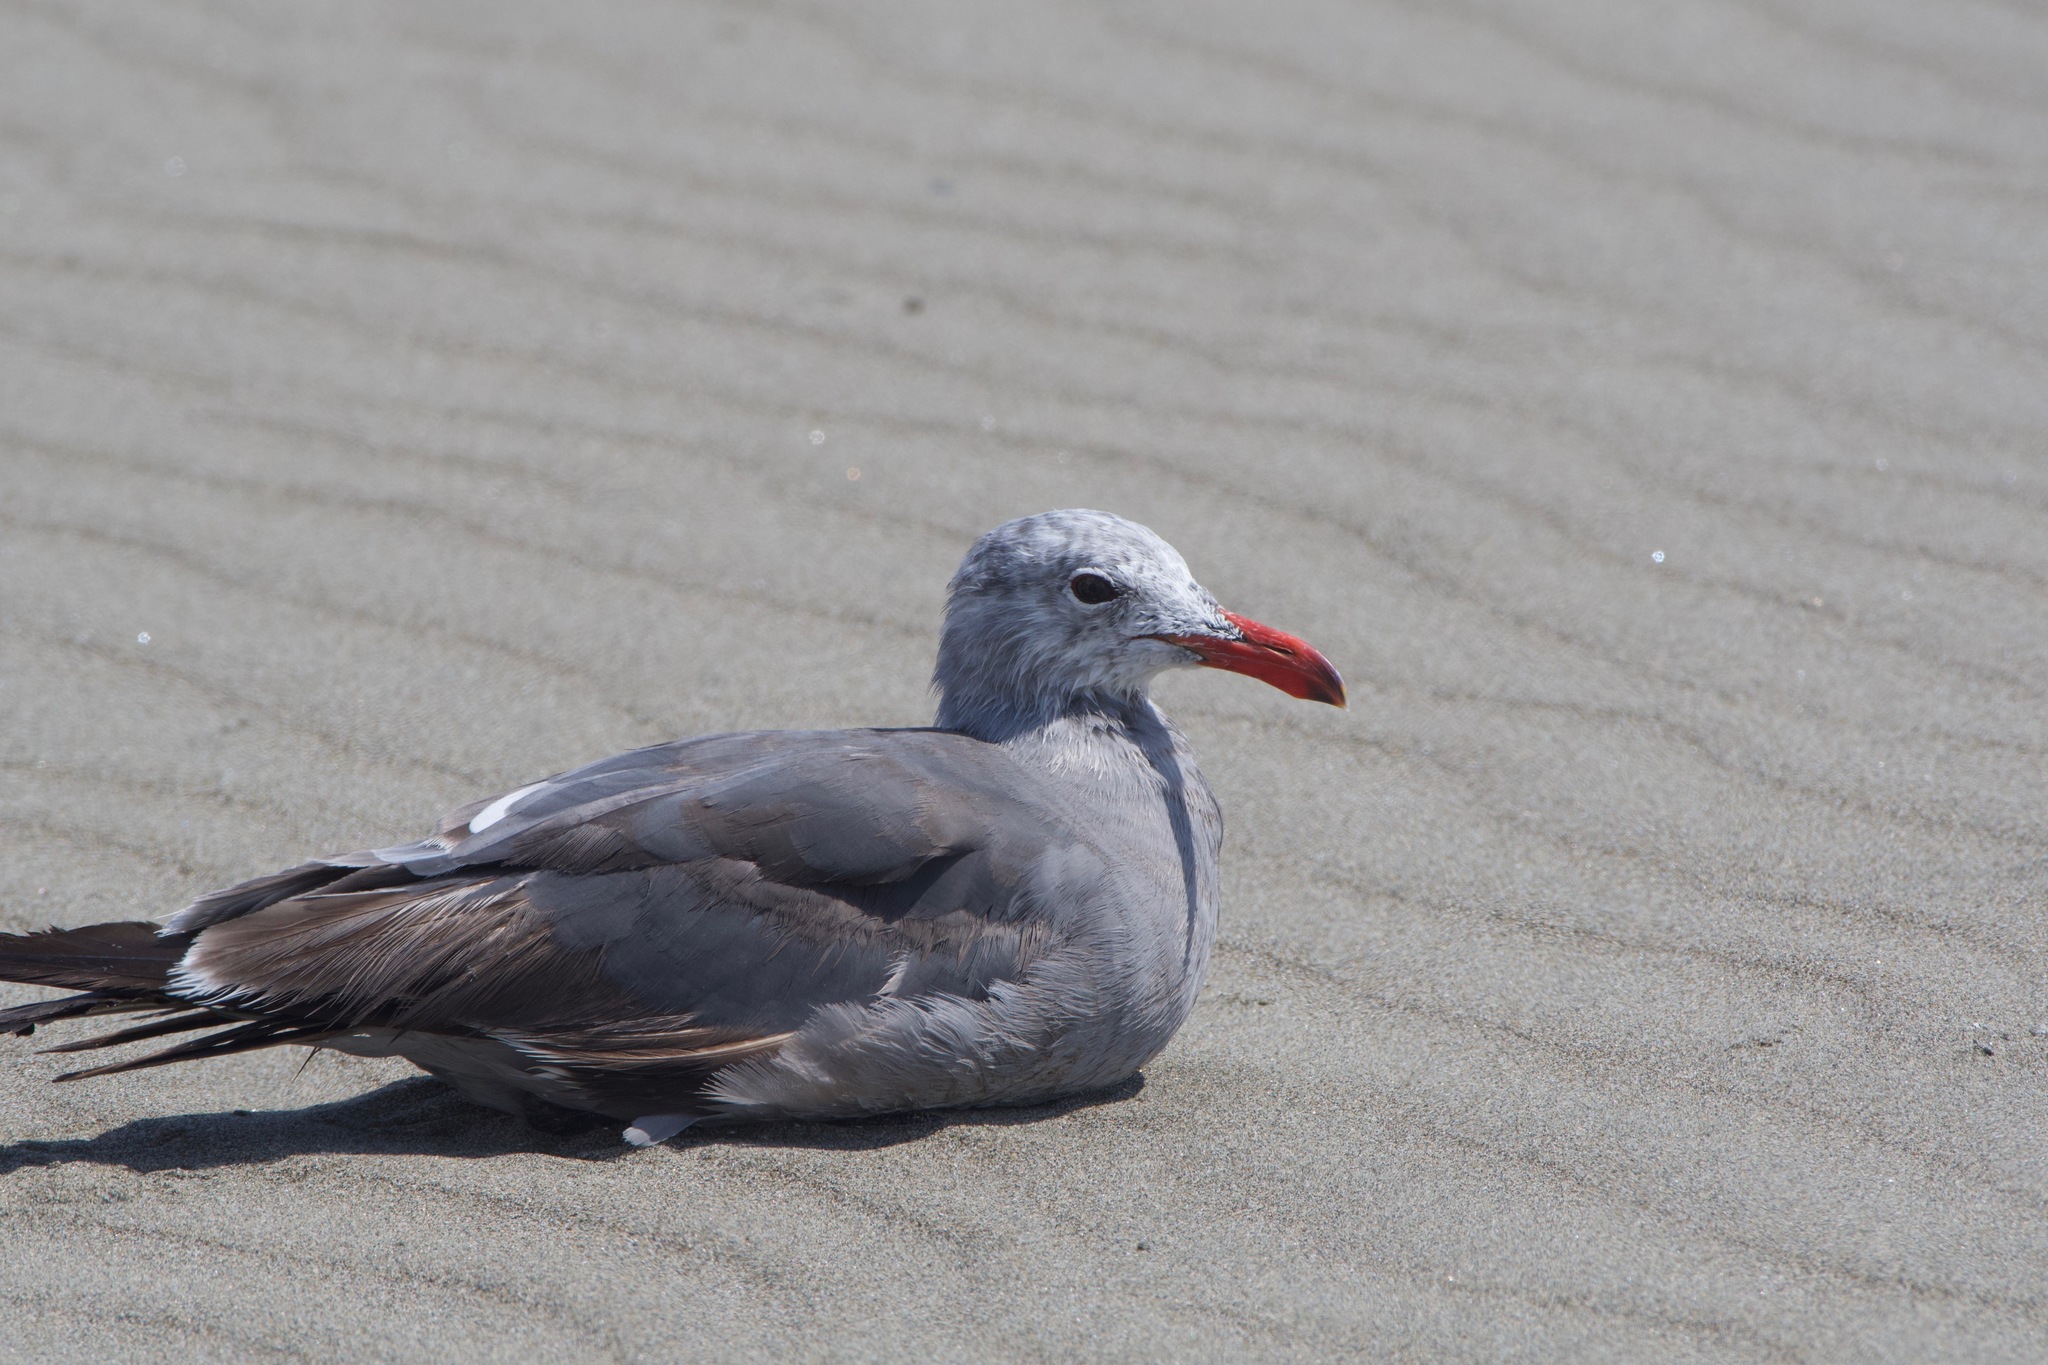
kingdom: Animalia
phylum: Chordata
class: Aves
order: Charadriiformes
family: Laridae
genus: Larus
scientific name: Larus heermanni
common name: Heermann's gull
